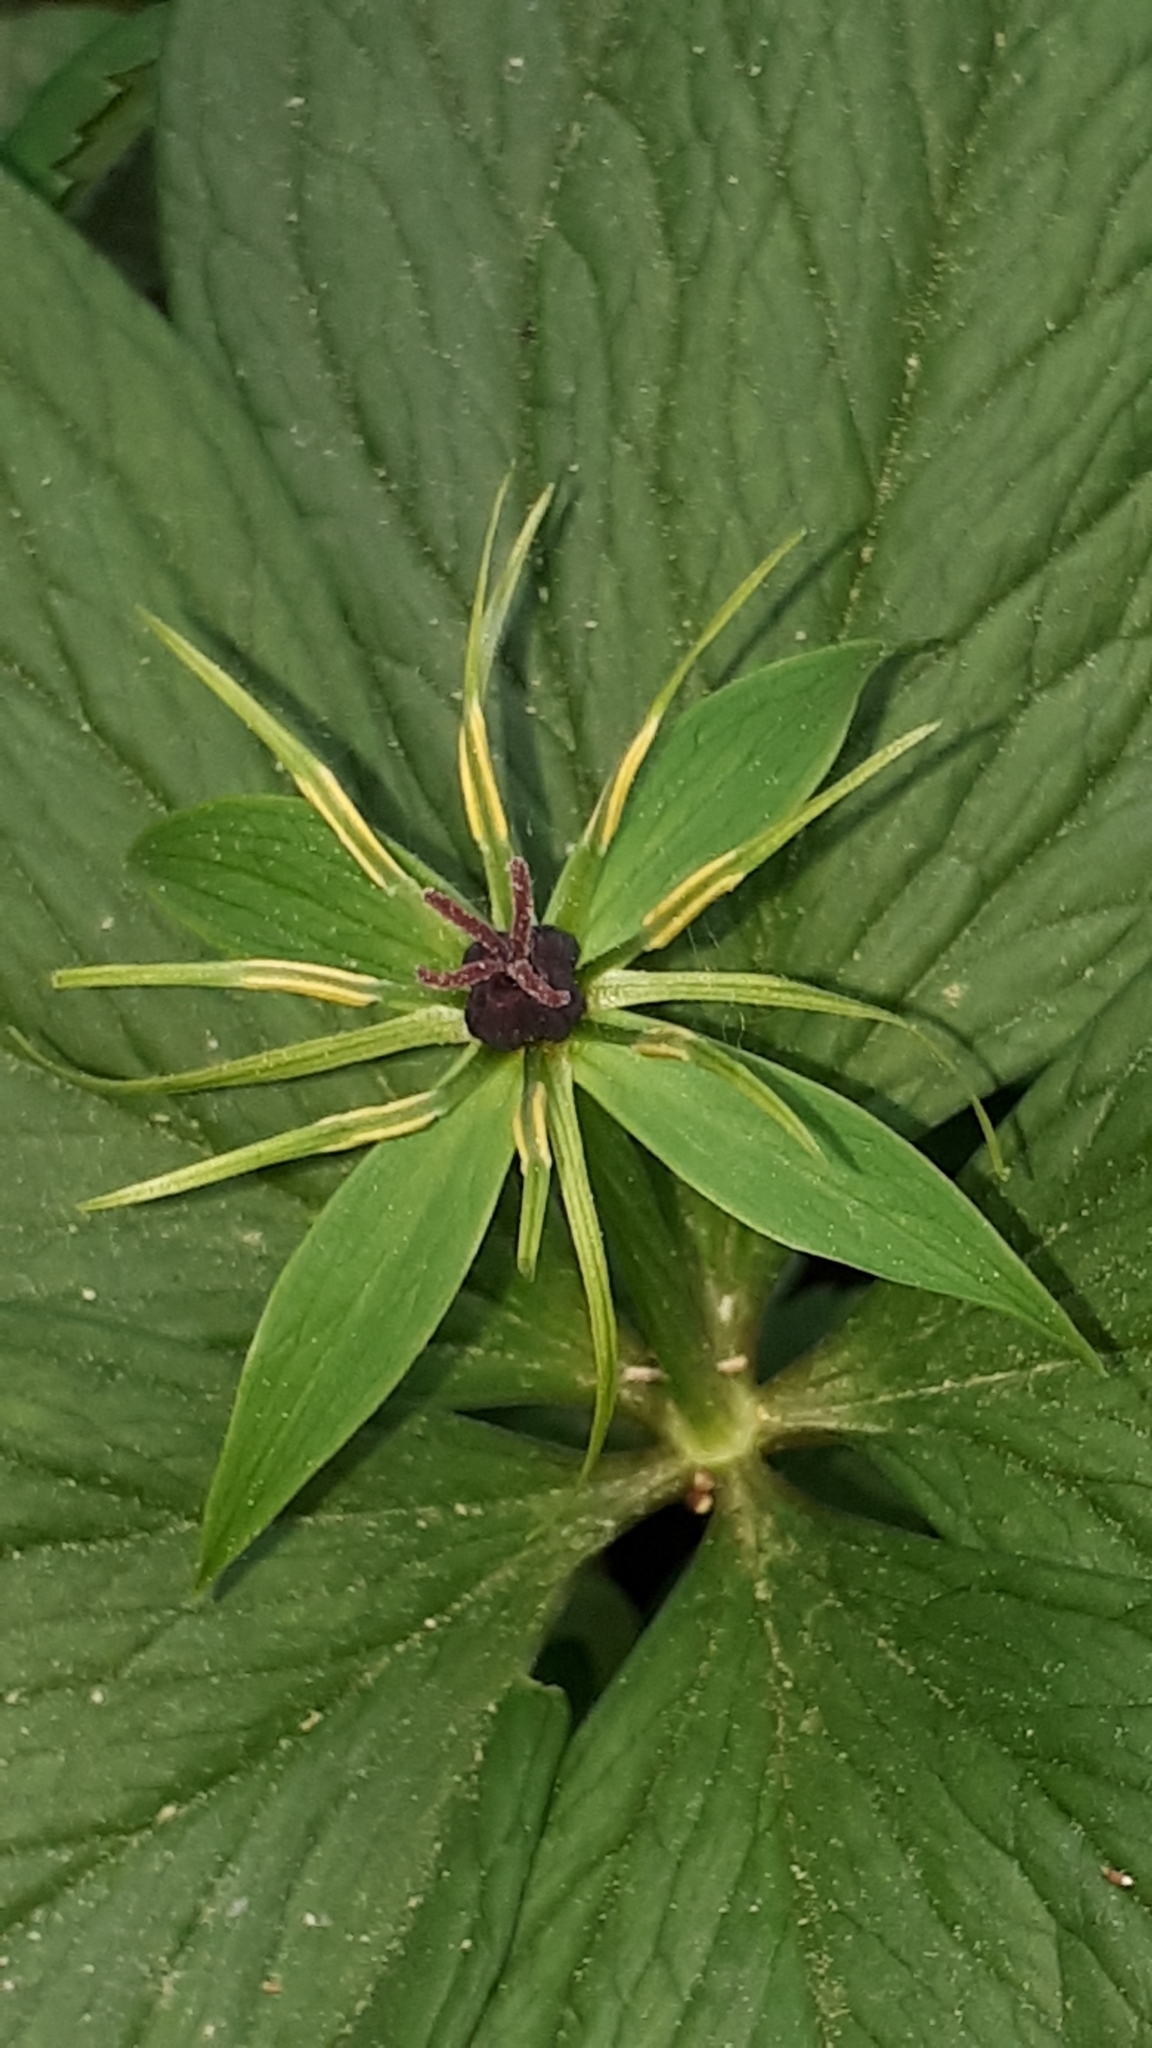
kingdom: Plantae
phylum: Tracheophyta
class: Liliopsida
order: Liliales
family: Melanthiaceae
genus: Paris
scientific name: Paris quadrifolia
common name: Herb-paris
